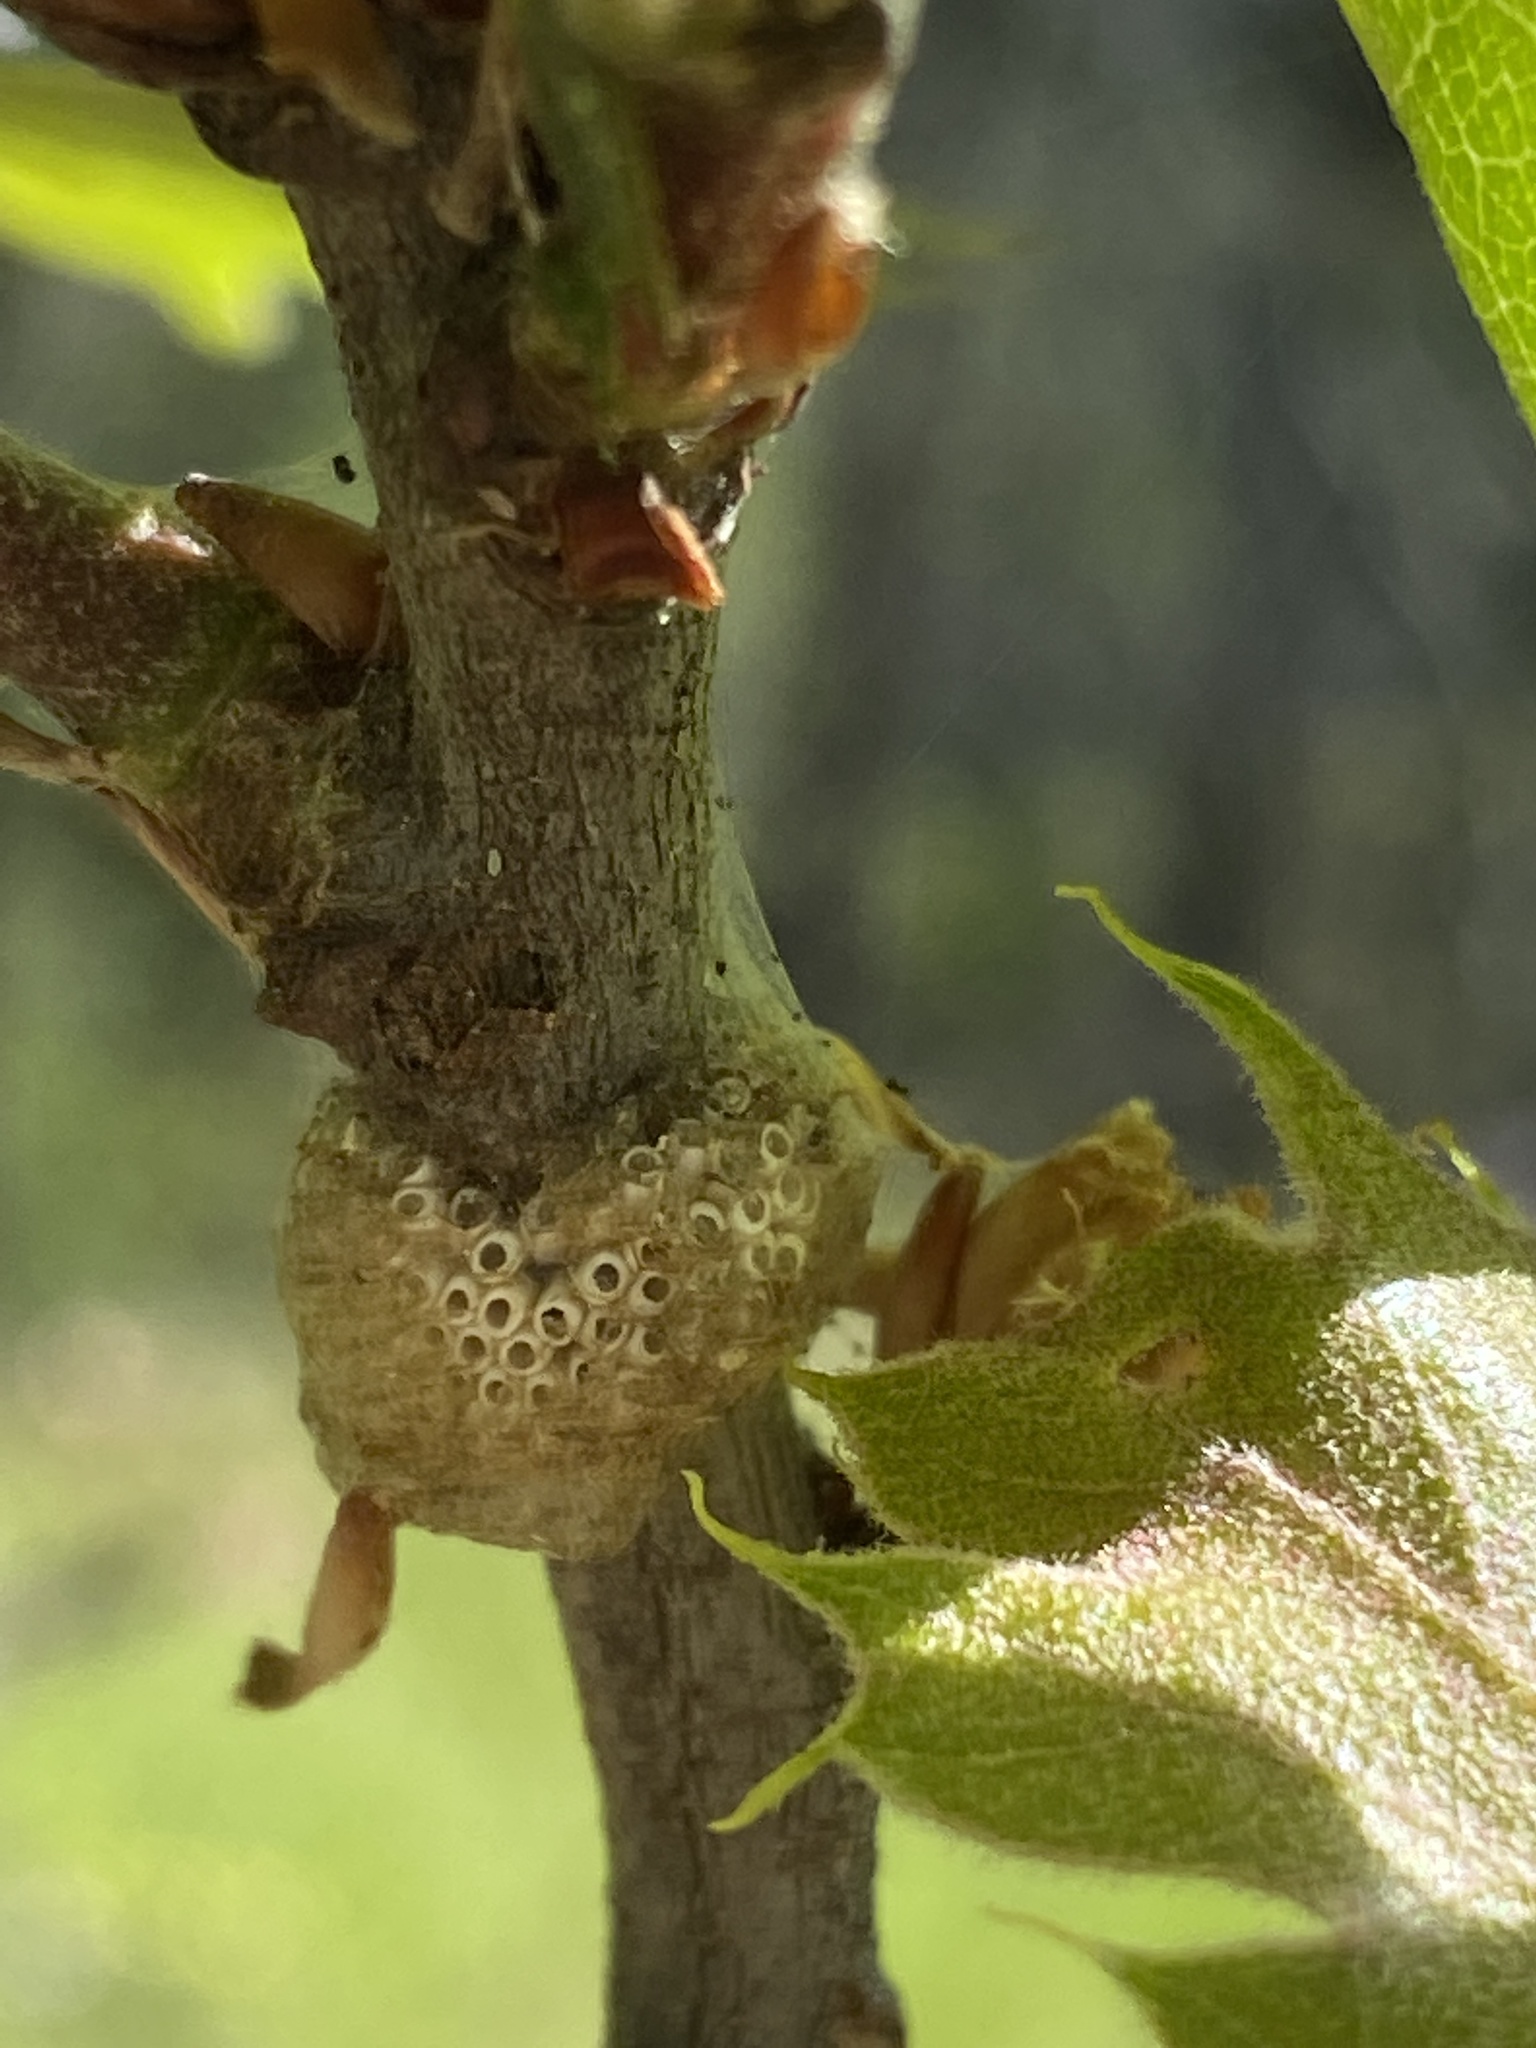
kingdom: Animalia
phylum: Arthropoda
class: Insecta
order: Lepidoptera
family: Lasiocampidae
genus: Malacosoma
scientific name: Malacosoma constricta
